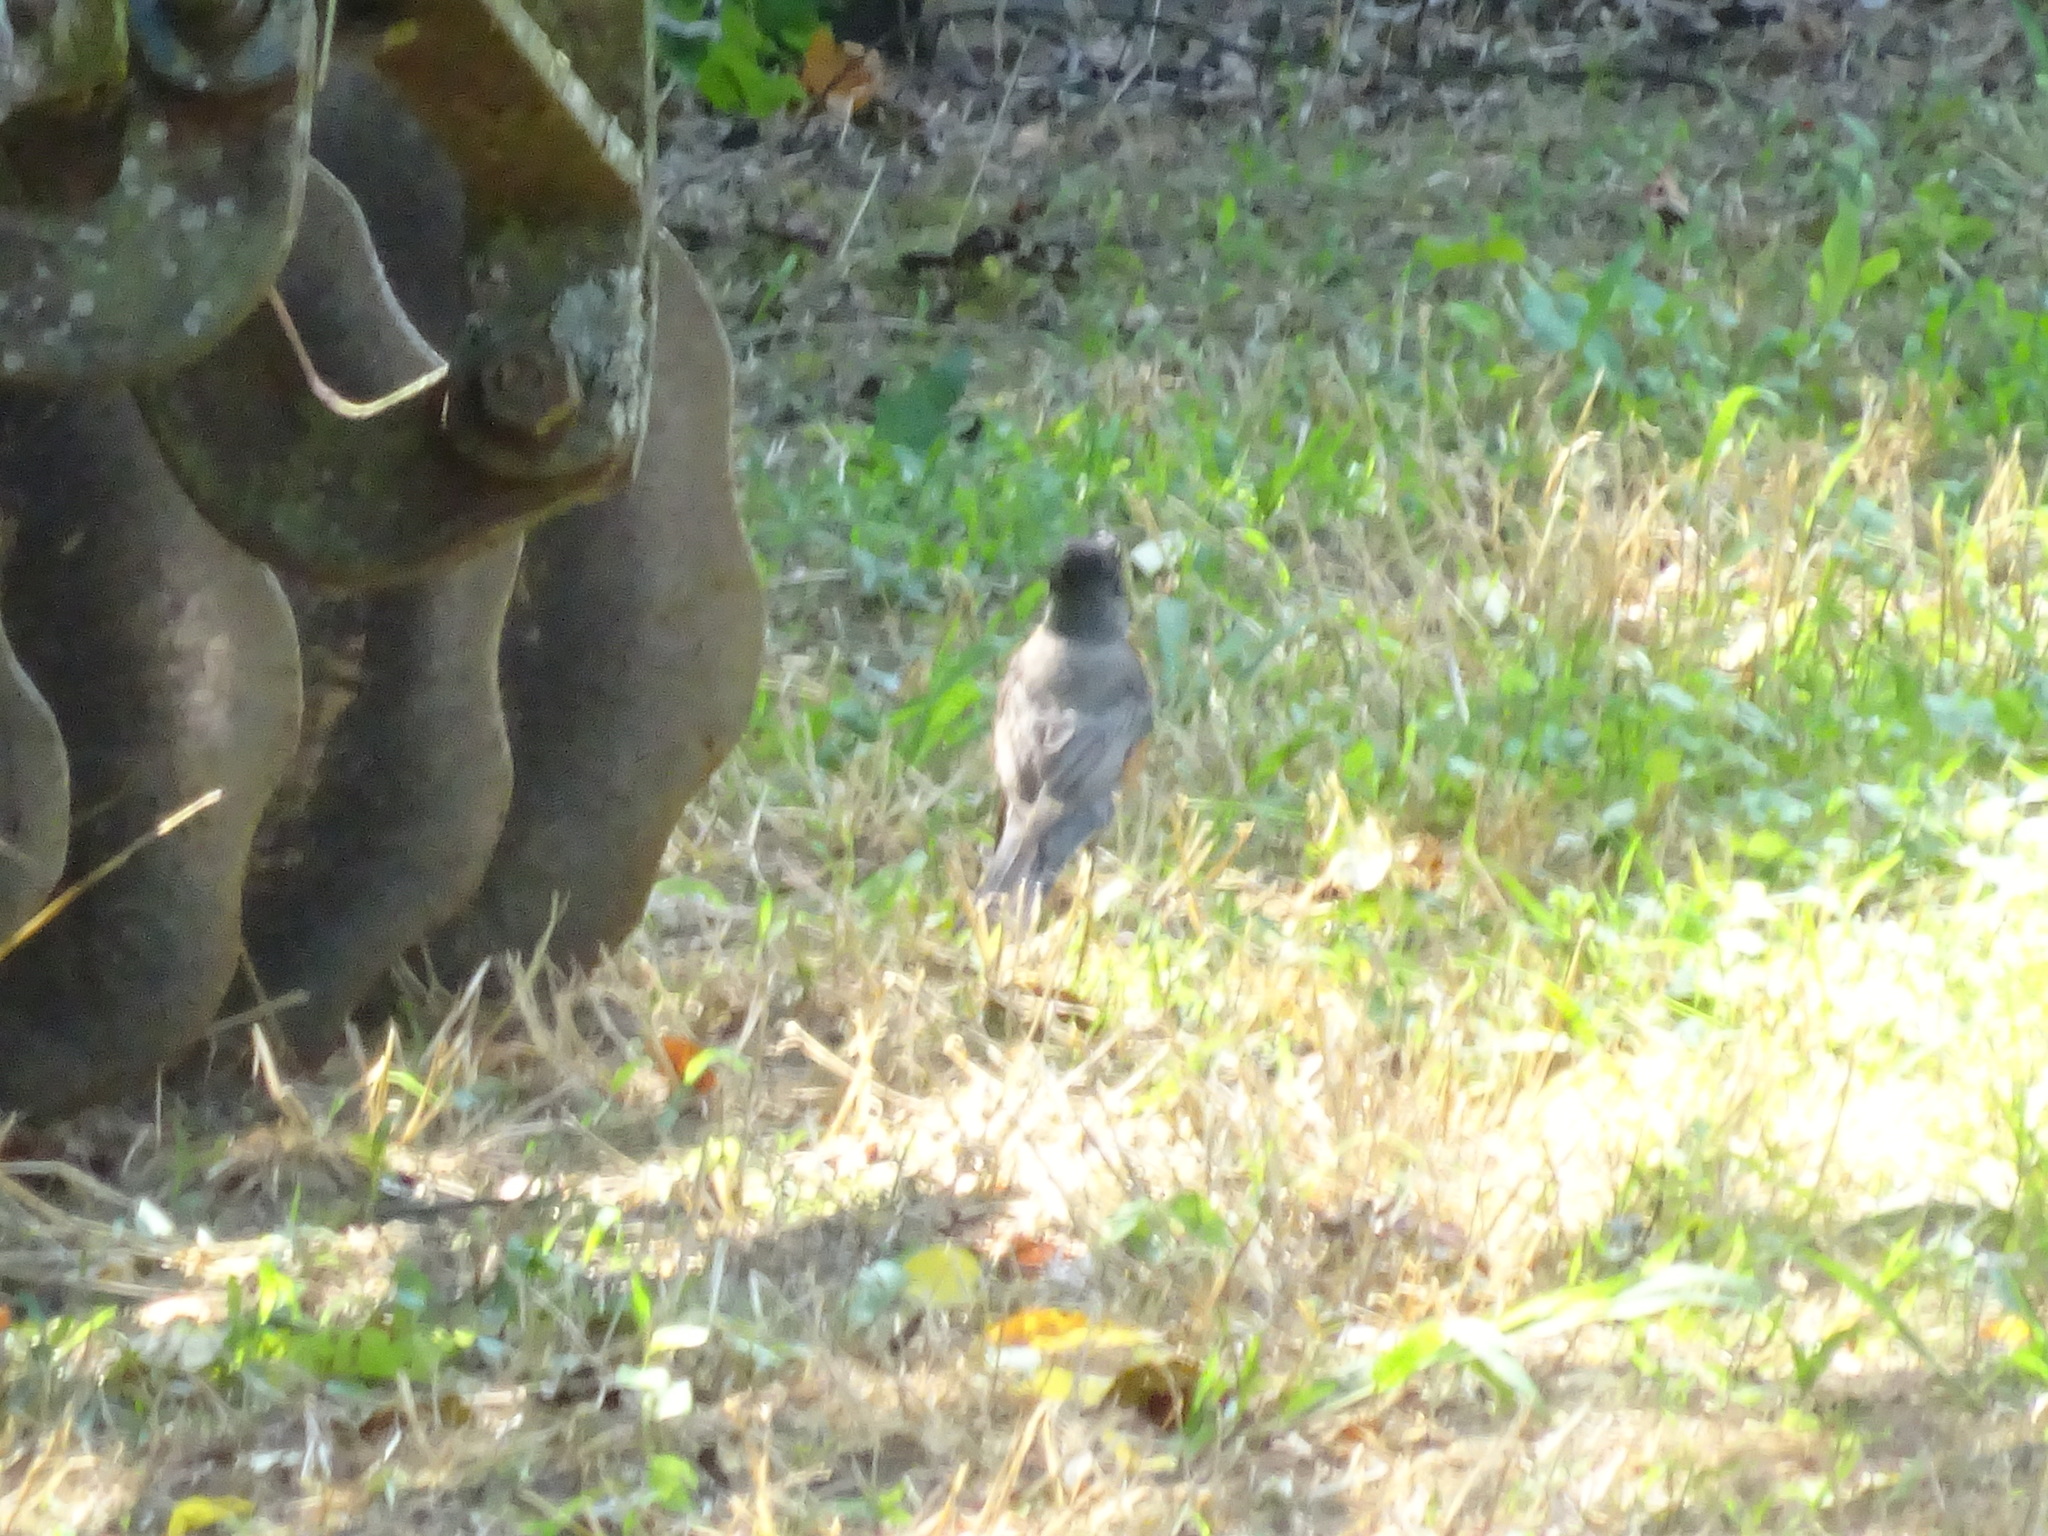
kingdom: Animalia
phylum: Chordata
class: Aves
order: Passeriformes
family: Turdidae
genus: Turdus
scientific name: Turdus migratorius
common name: American robin
